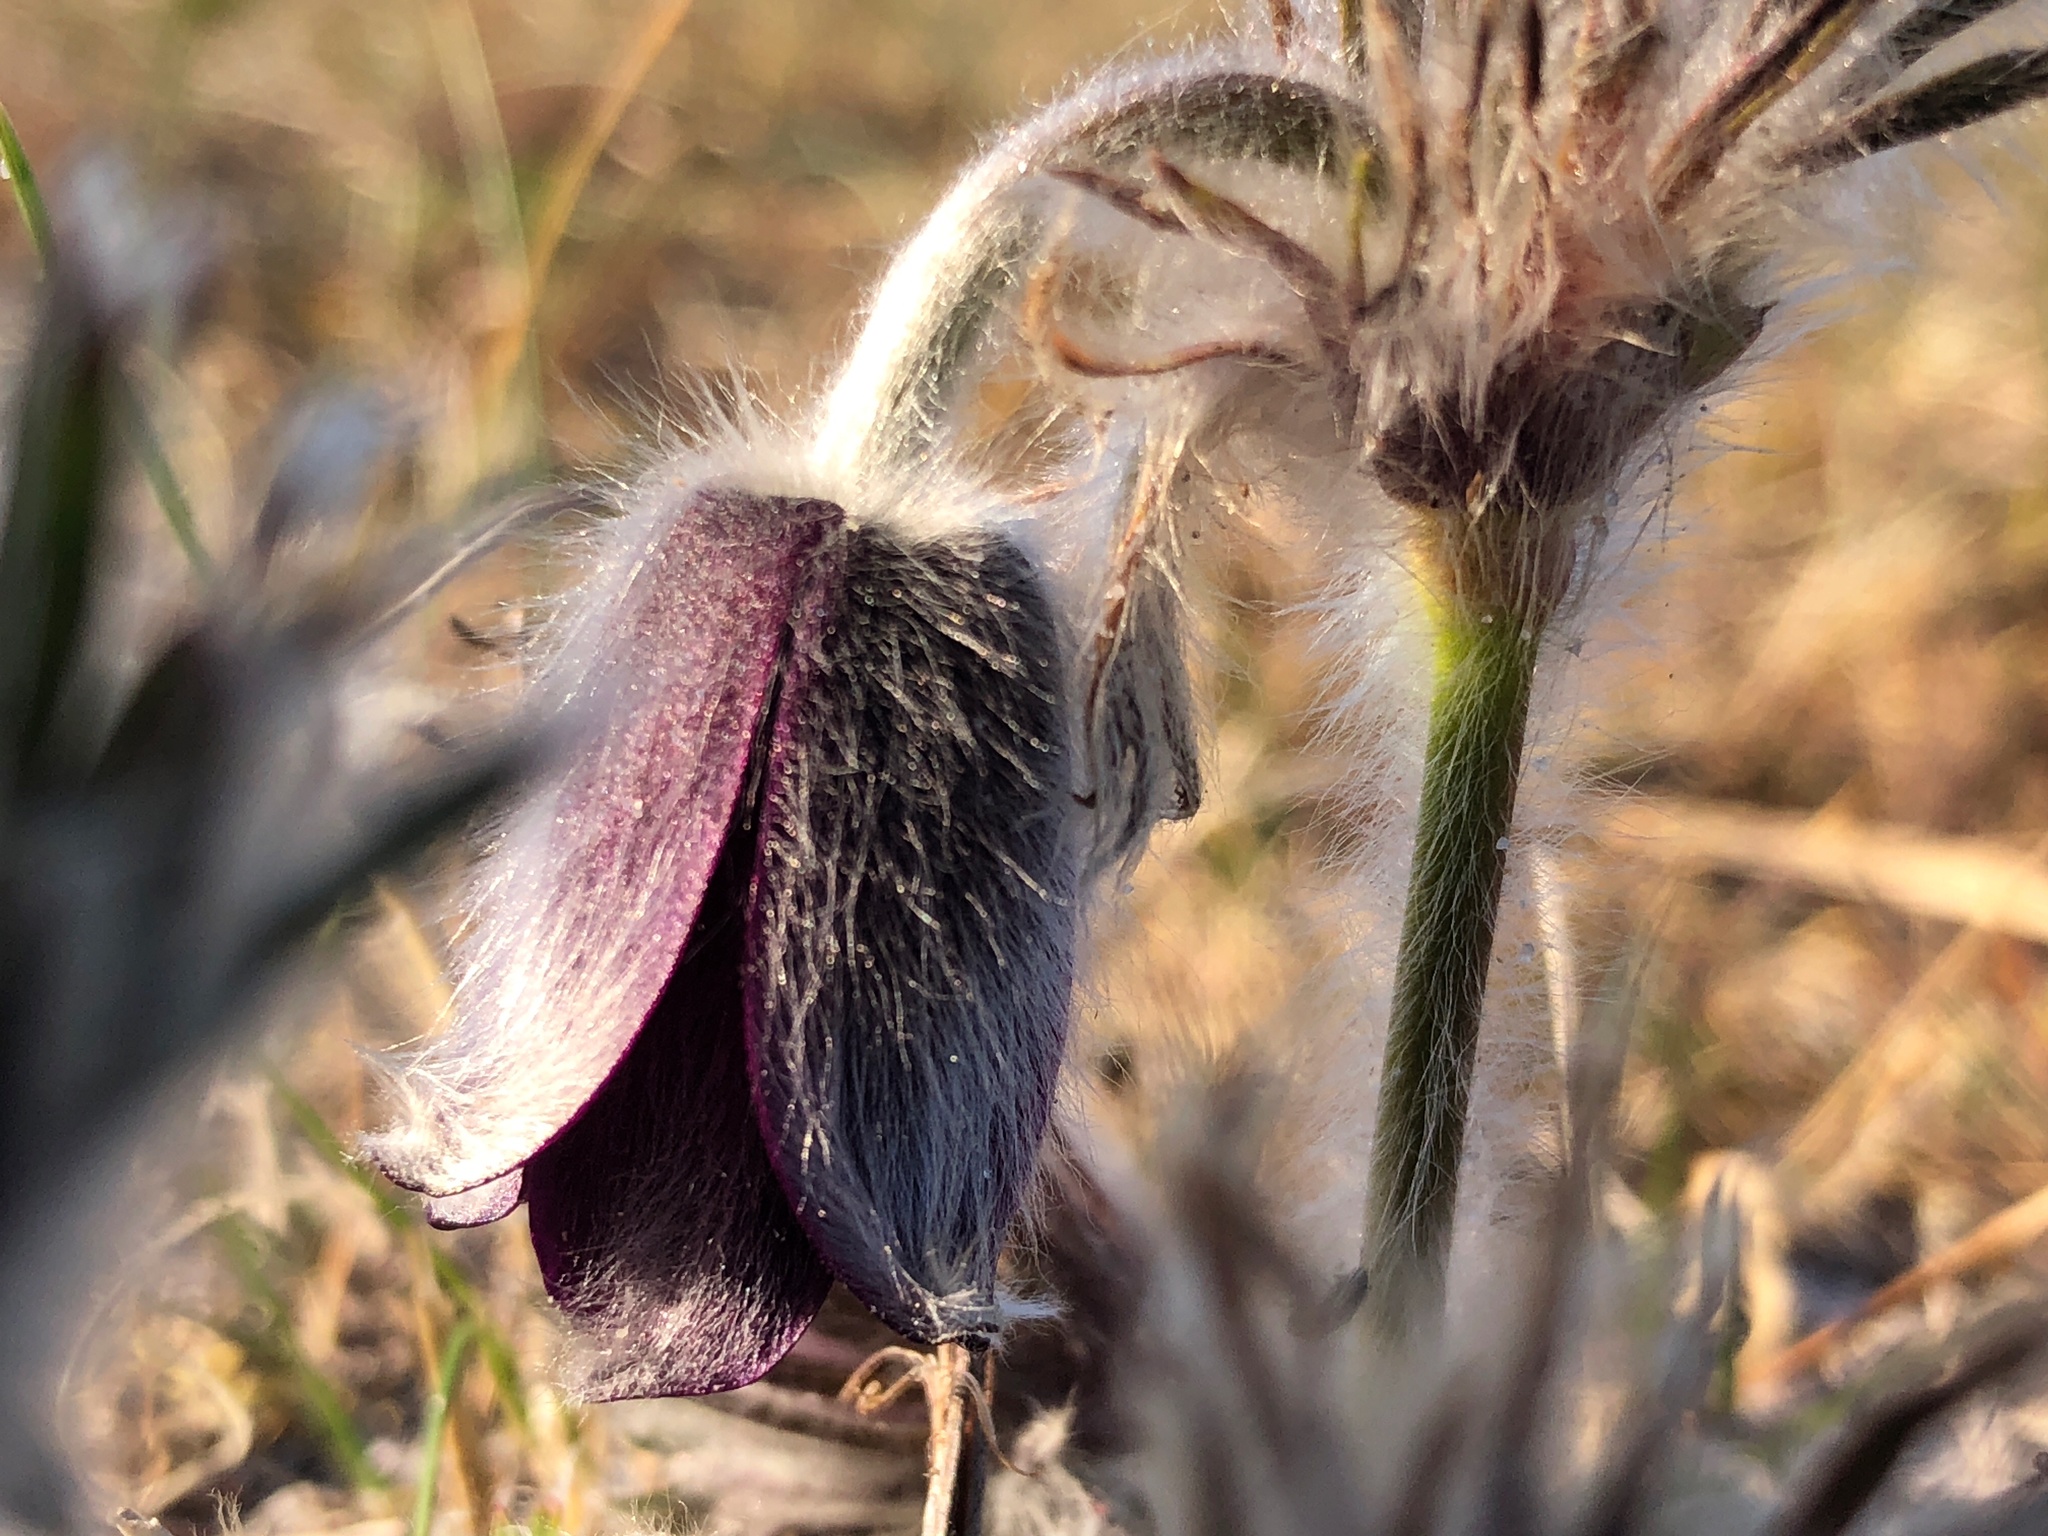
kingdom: Plantae
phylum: Tracheophyta
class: Magnoliopsida
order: Ranunculales
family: Ranunculaceae
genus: Pulsatilla
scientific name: Pulsatilla pratensis
